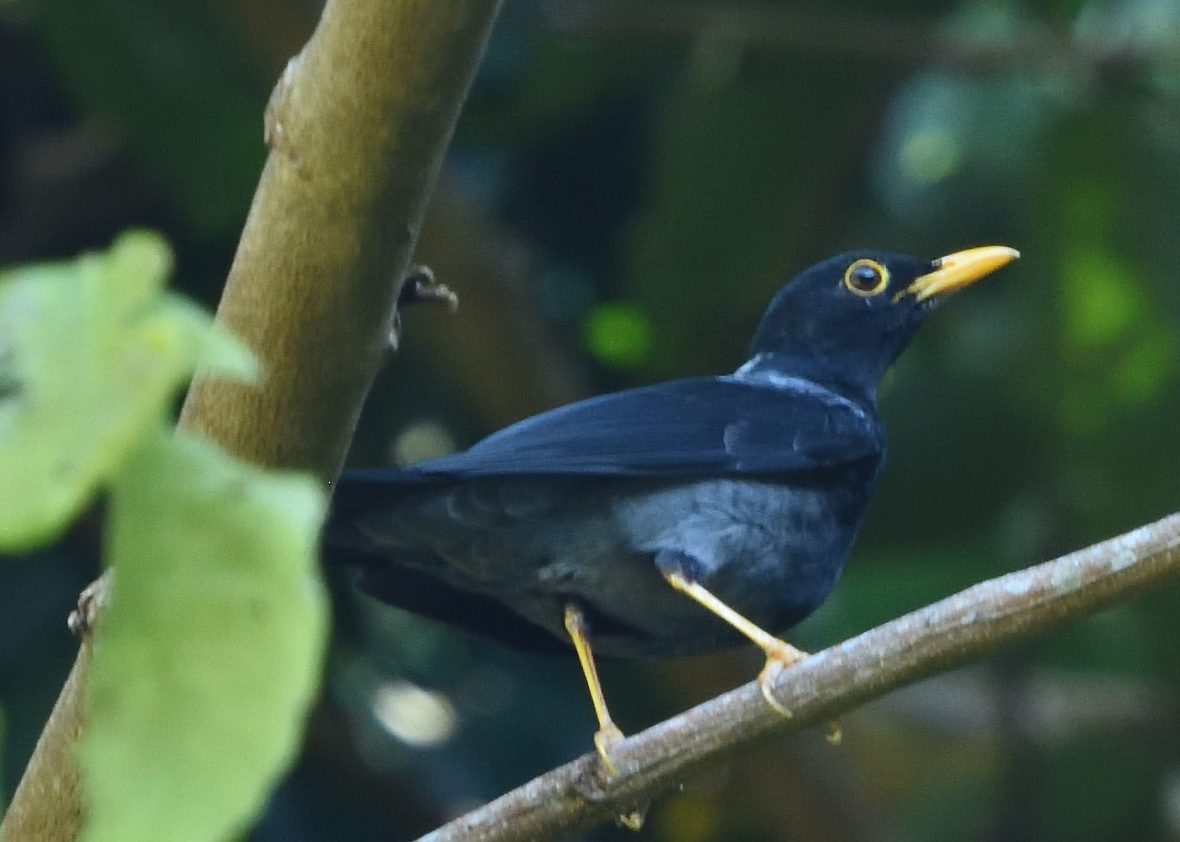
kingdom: Animalia
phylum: Chordata
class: Aves
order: Passeriformes
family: Turdidae
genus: Turdus
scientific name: Turdus flavipes
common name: Yellow-legged thrush
